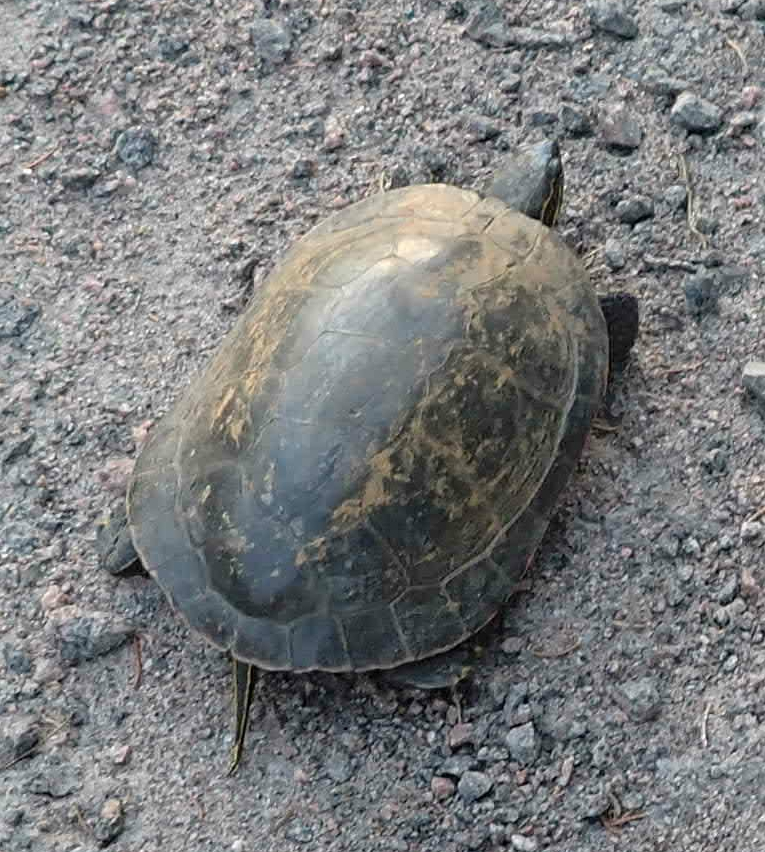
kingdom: Animalia
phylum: Chordata
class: Testudines
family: Emydidae
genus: Chrysemys
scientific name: Chrysemys picta
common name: Painted turtle
